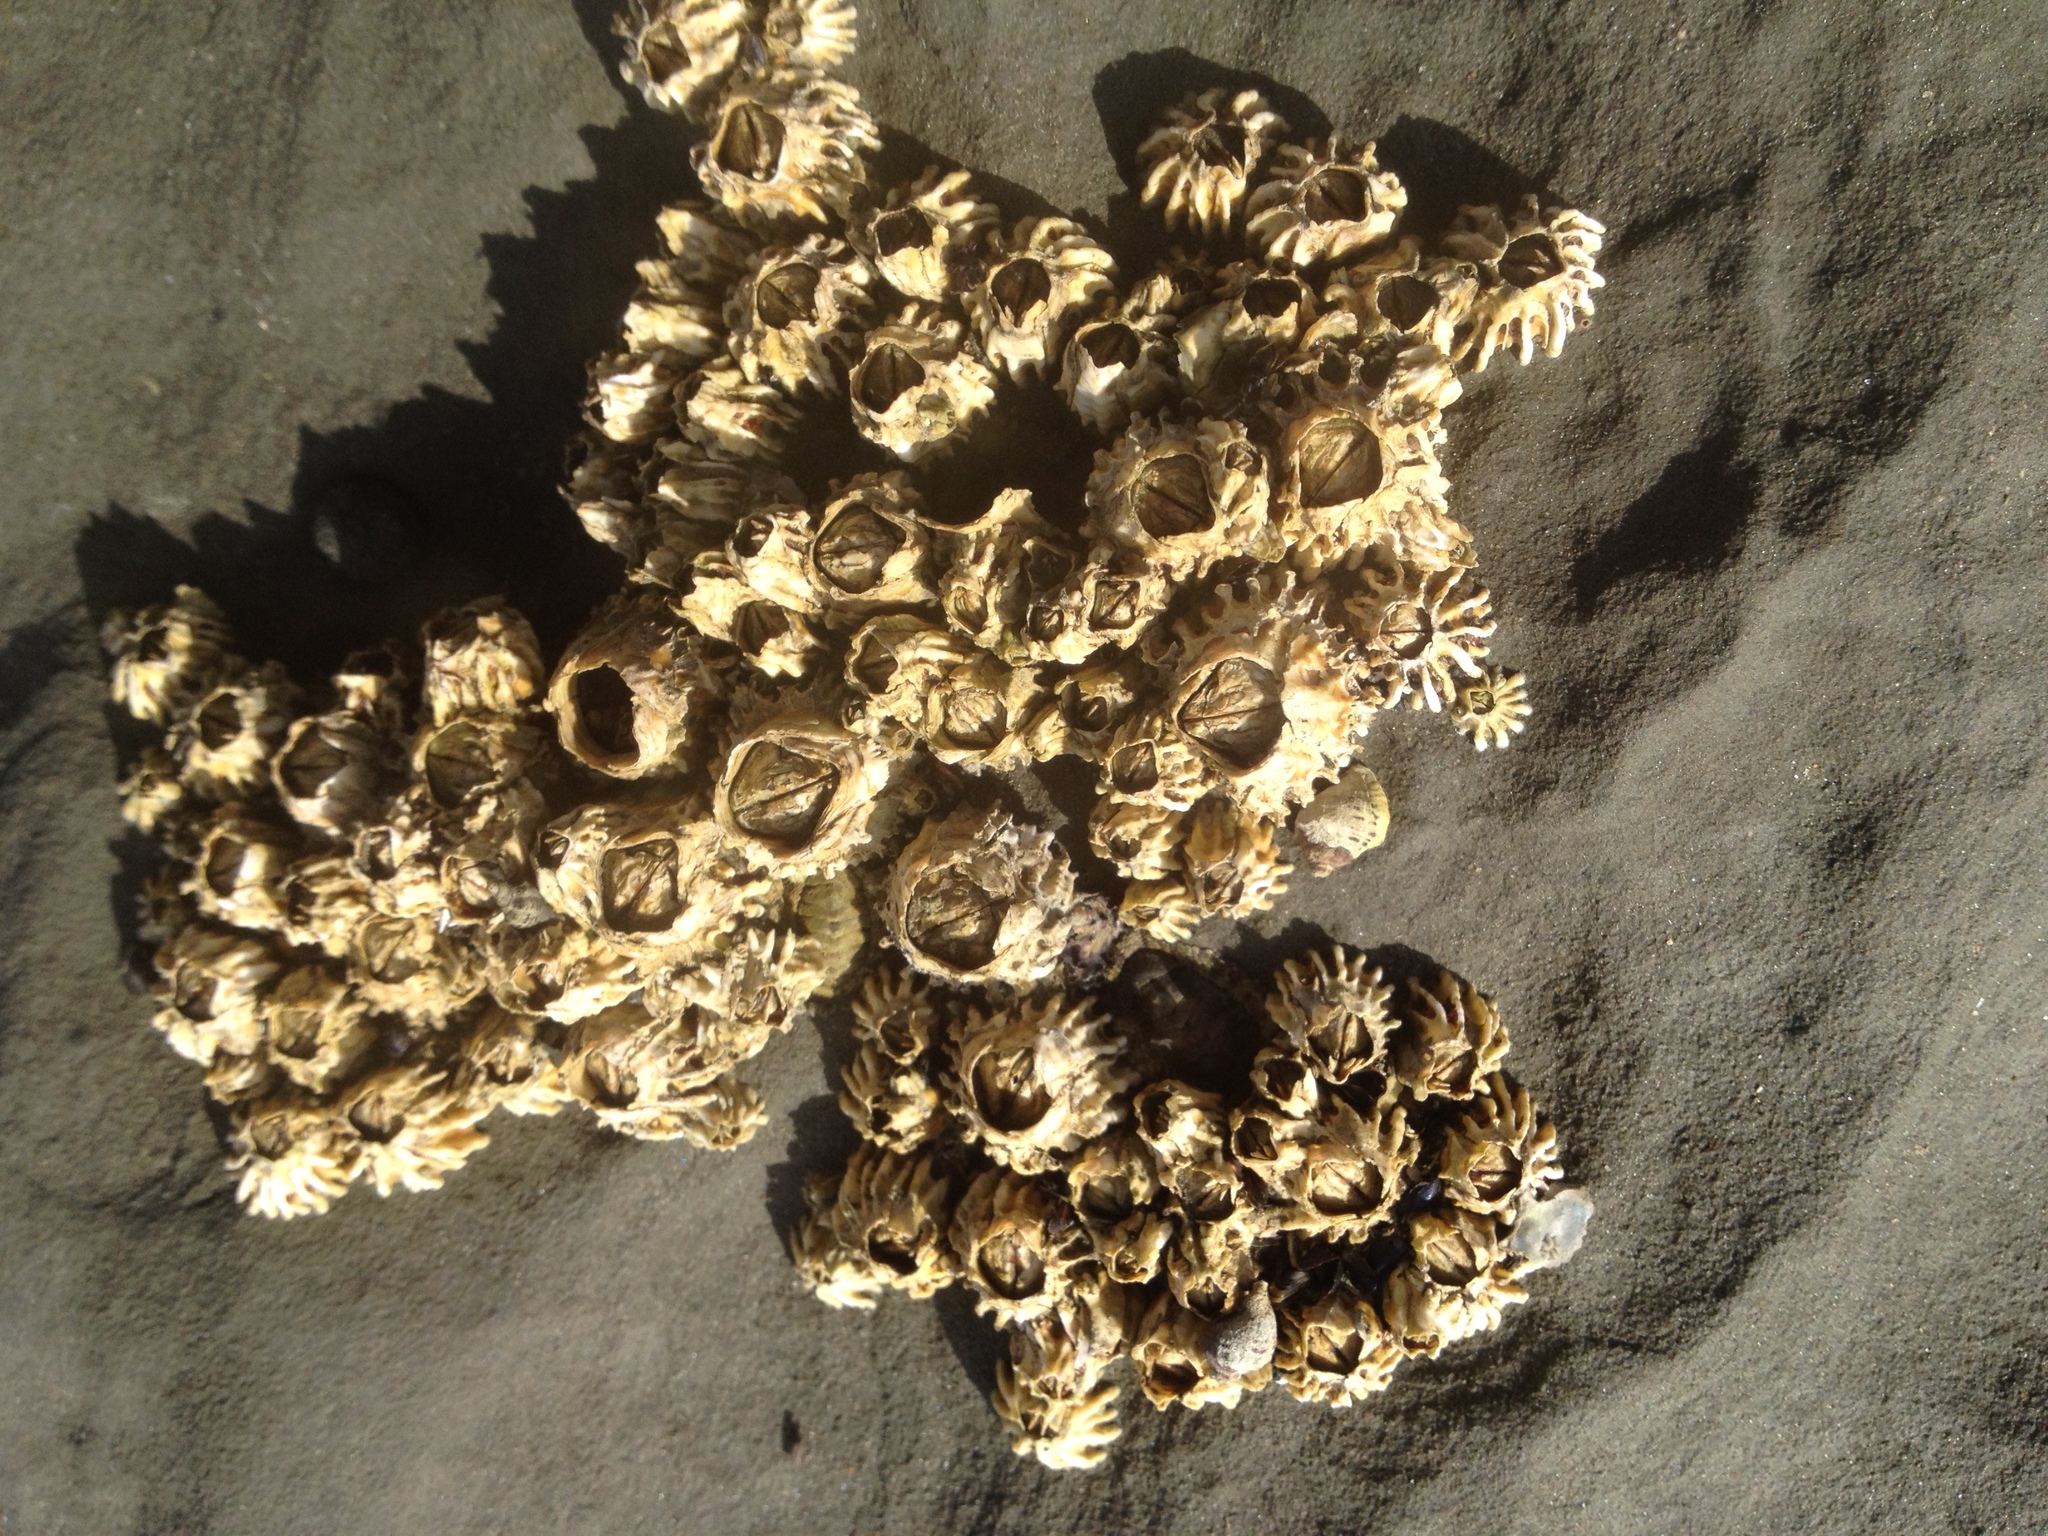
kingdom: Animalia
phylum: Arthropoda
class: Maxillopoda
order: Sessilia
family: Tetraclitidae
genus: Epopella
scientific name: Epopella plicata
